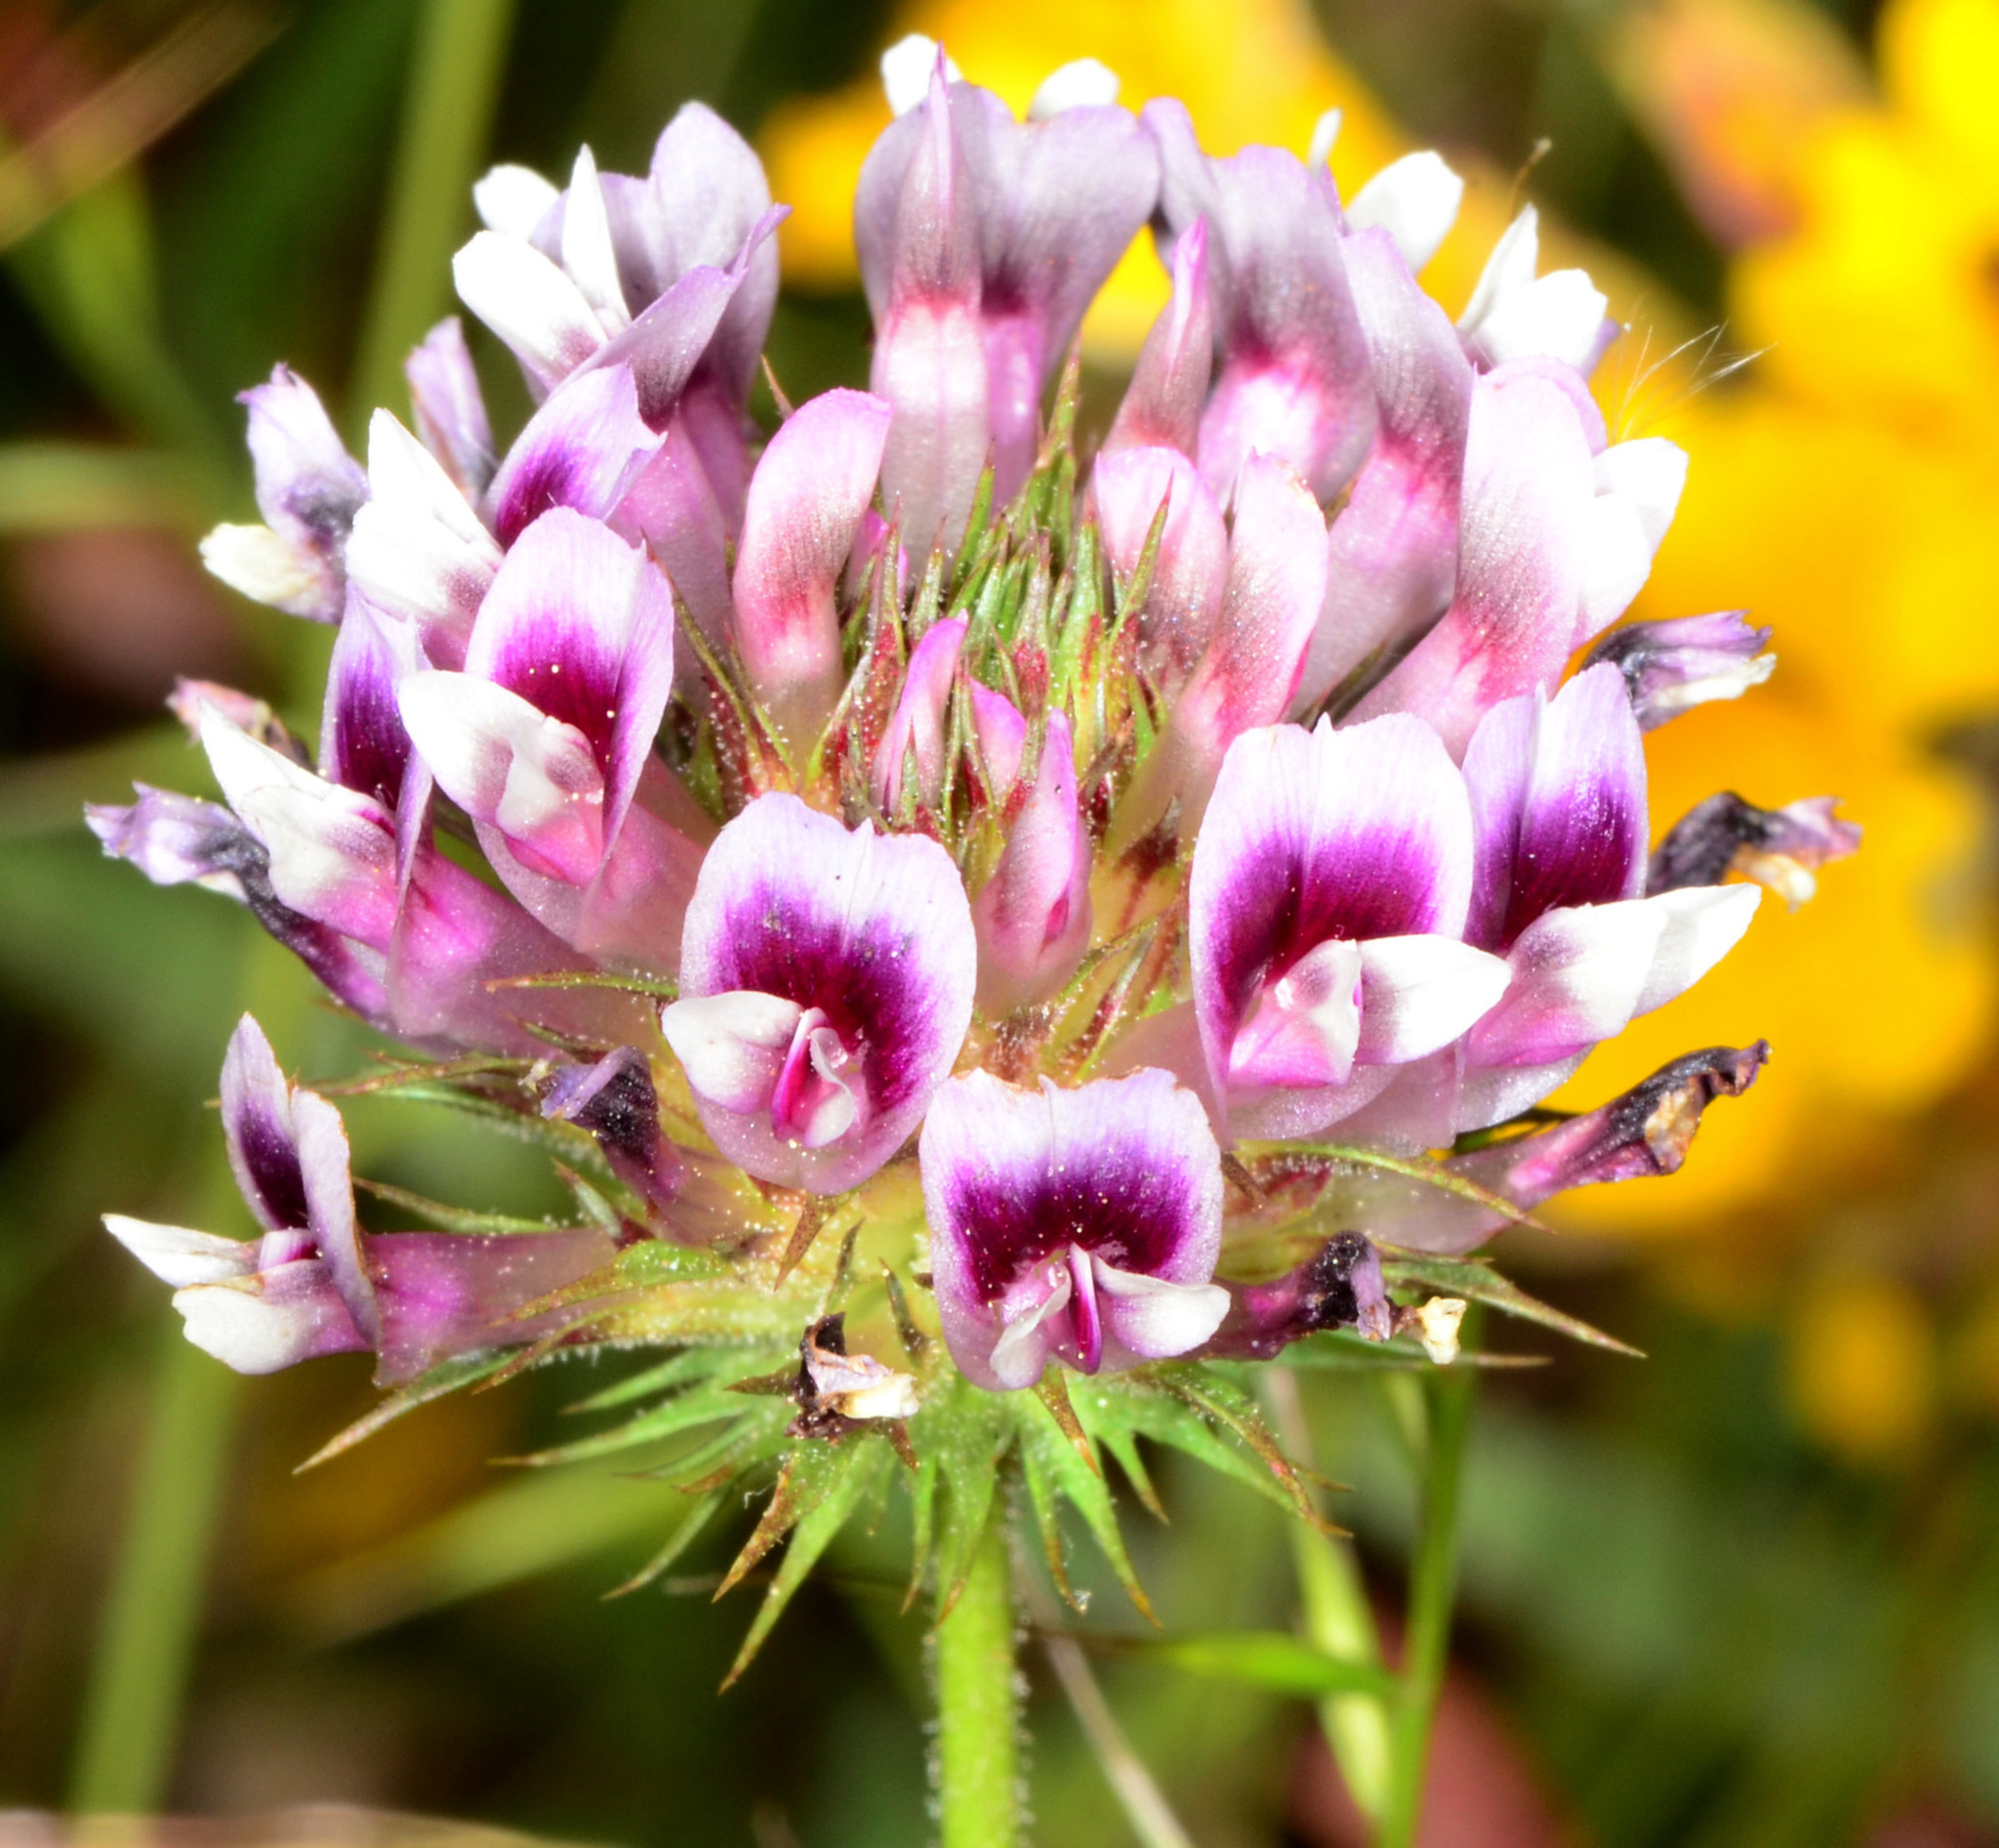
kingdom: Plantae
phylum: Tracheophyta
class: Magnoliopsida
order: Fabales
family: Fabaceae
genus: Trifolium
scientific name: Trifolium willdenovii
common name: Tomcat clover
